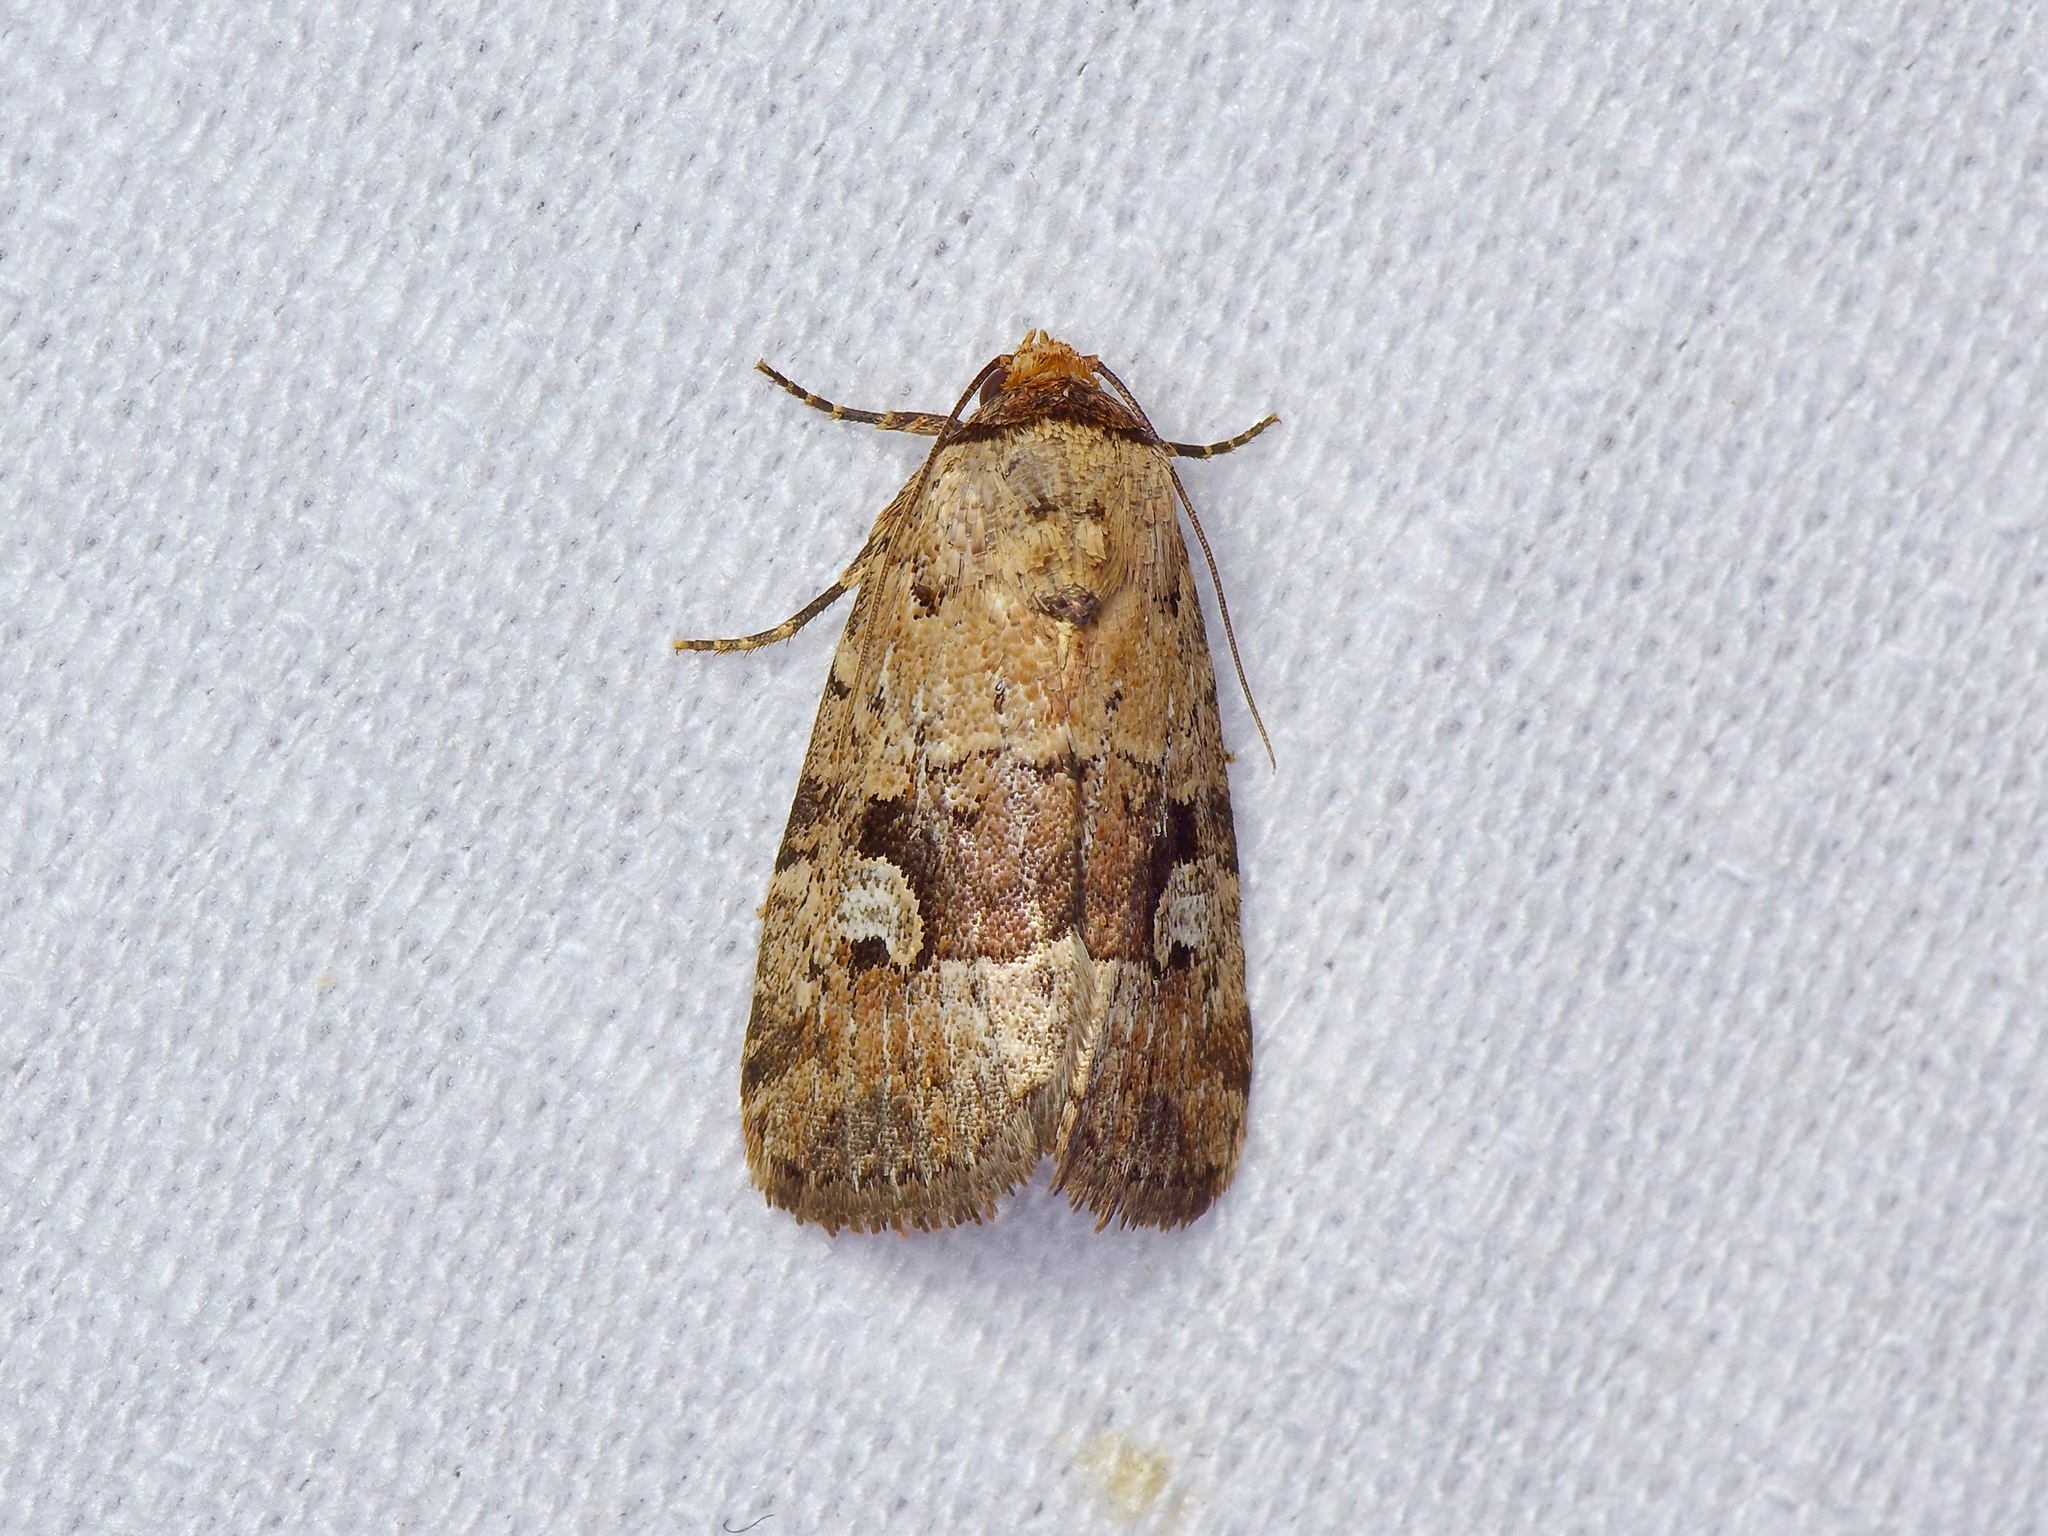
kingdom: Animalia
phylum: Arthropoda
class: Insecta
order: Lepidoptera
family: Noctuidae
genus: Elaphria
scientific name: Elaphria festivoides
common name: Festive midget
